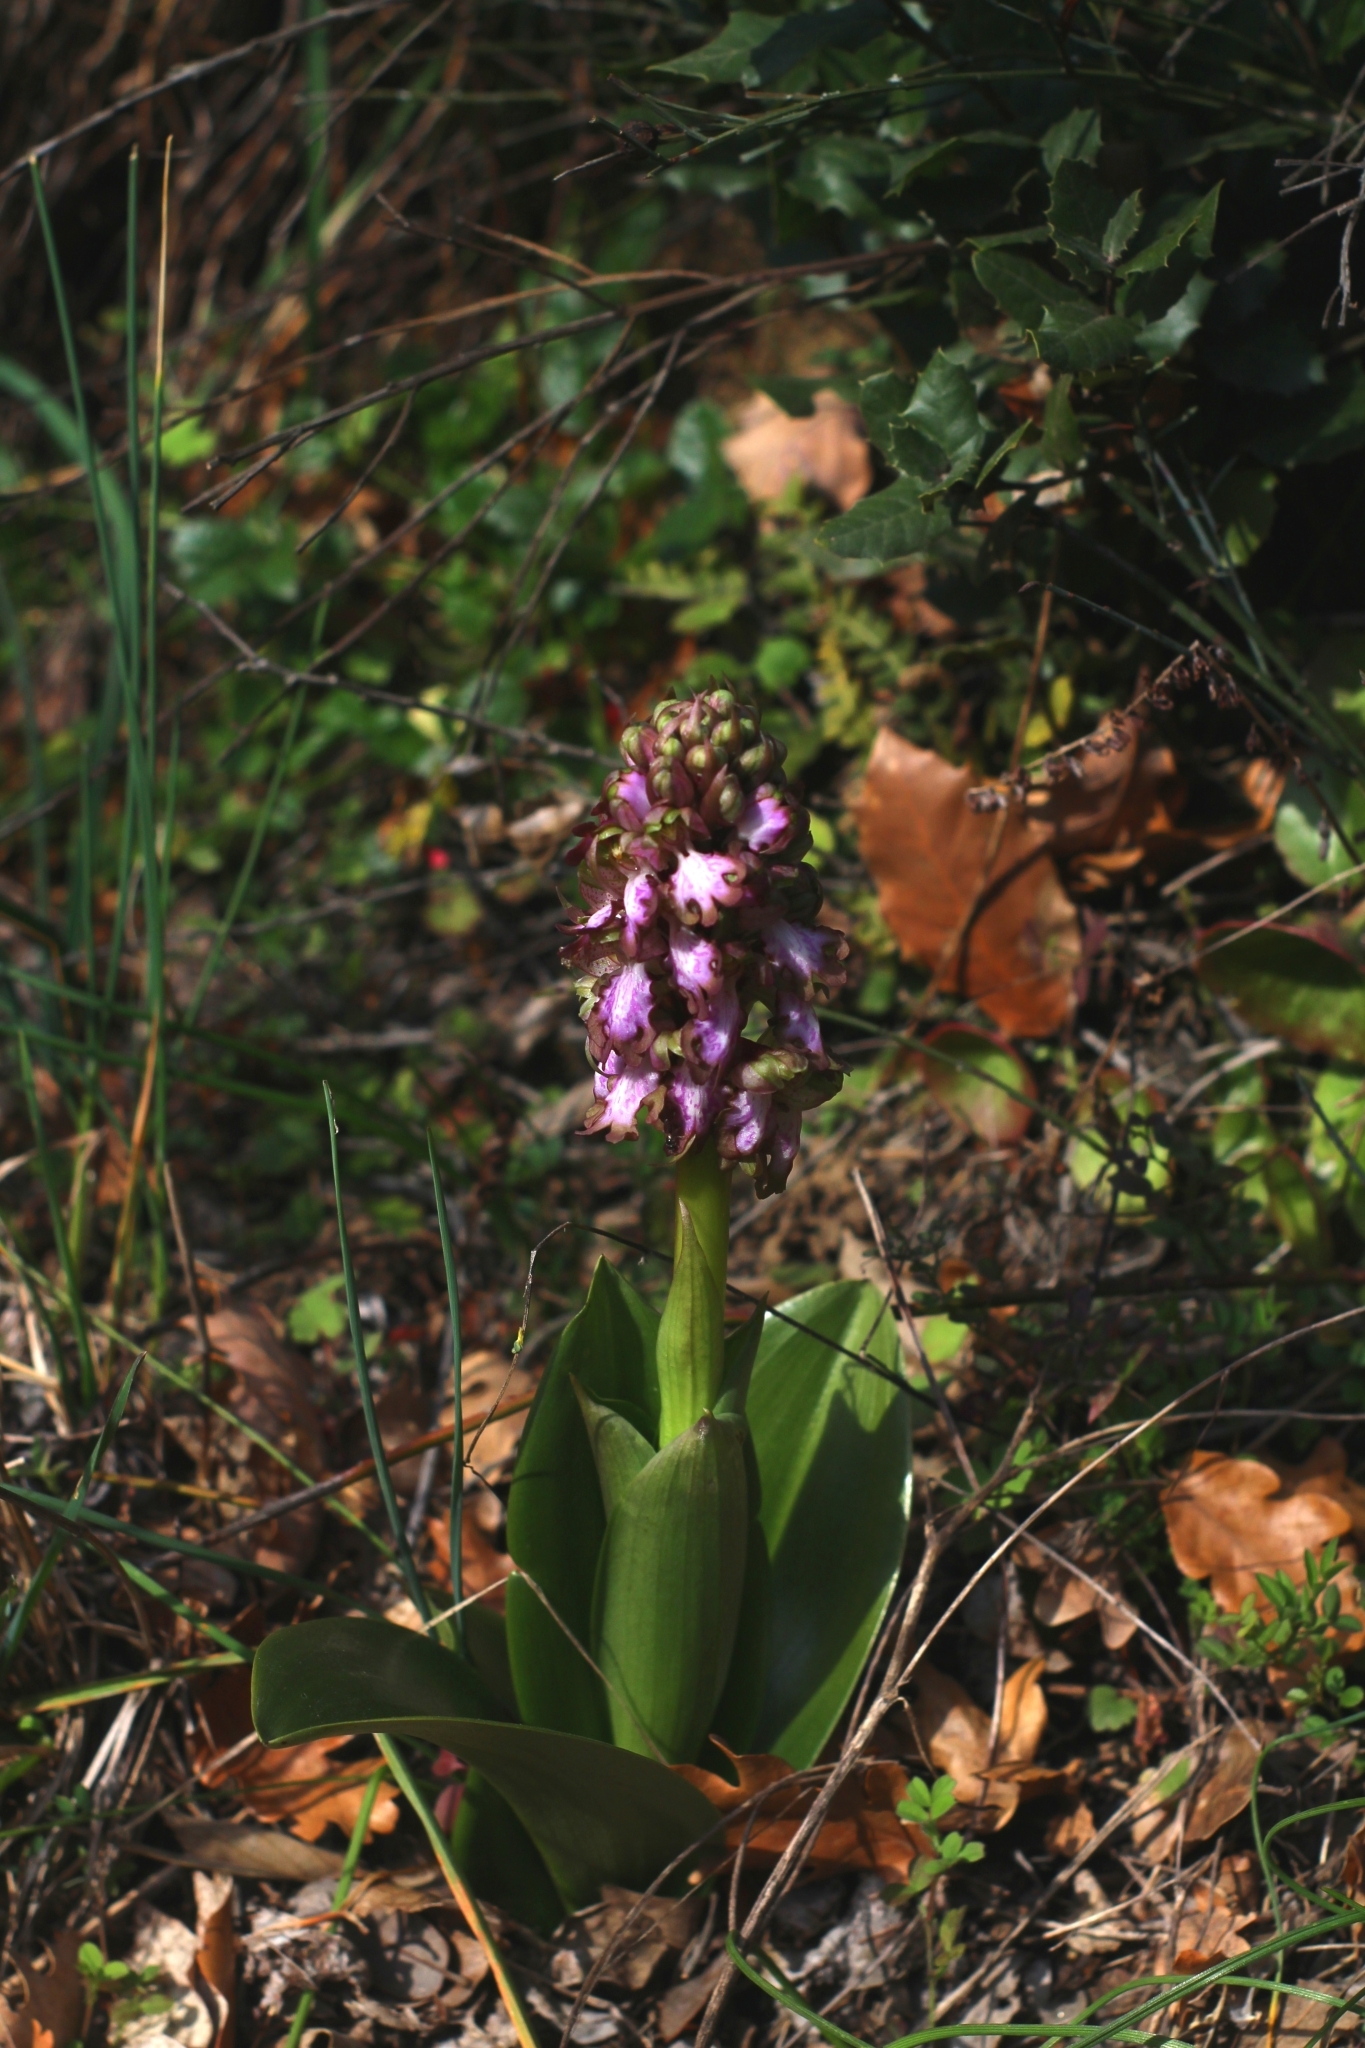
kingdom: Plantae
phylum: Tracheophyta
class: Liliopsida
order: Asparagales
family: Orchidaceae
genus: Himantoglossum
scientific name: Himantoglossum robertianum
